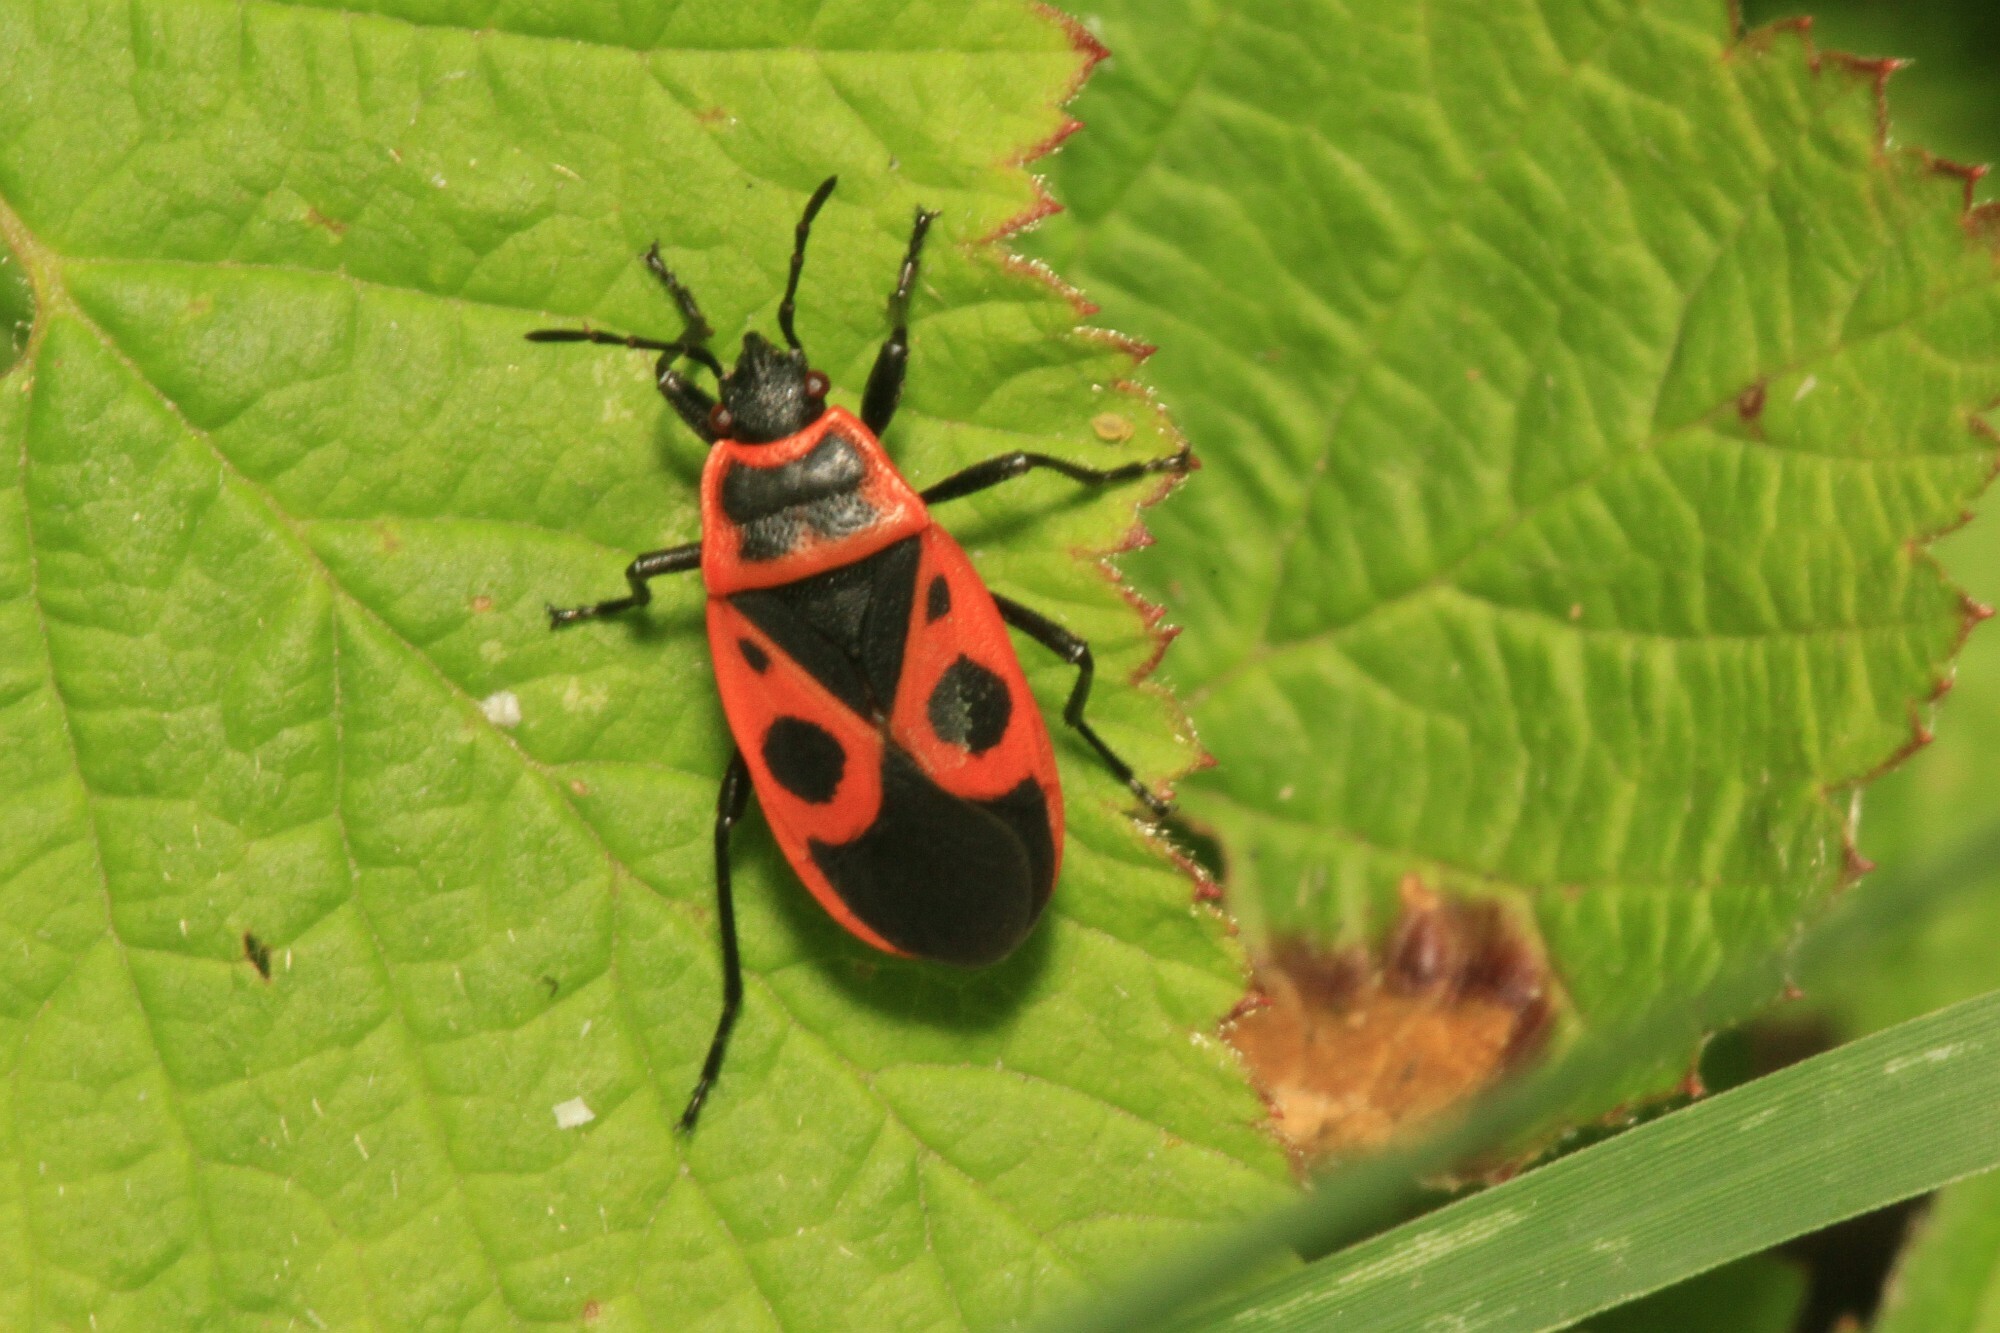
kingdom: Animalia
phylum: Arthropoda
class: Insecta
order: Hemiptera
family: Pyrrhocoridae
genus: Pyrrhocoris
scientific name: Pyrrhocoris apterus
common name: Firebug
